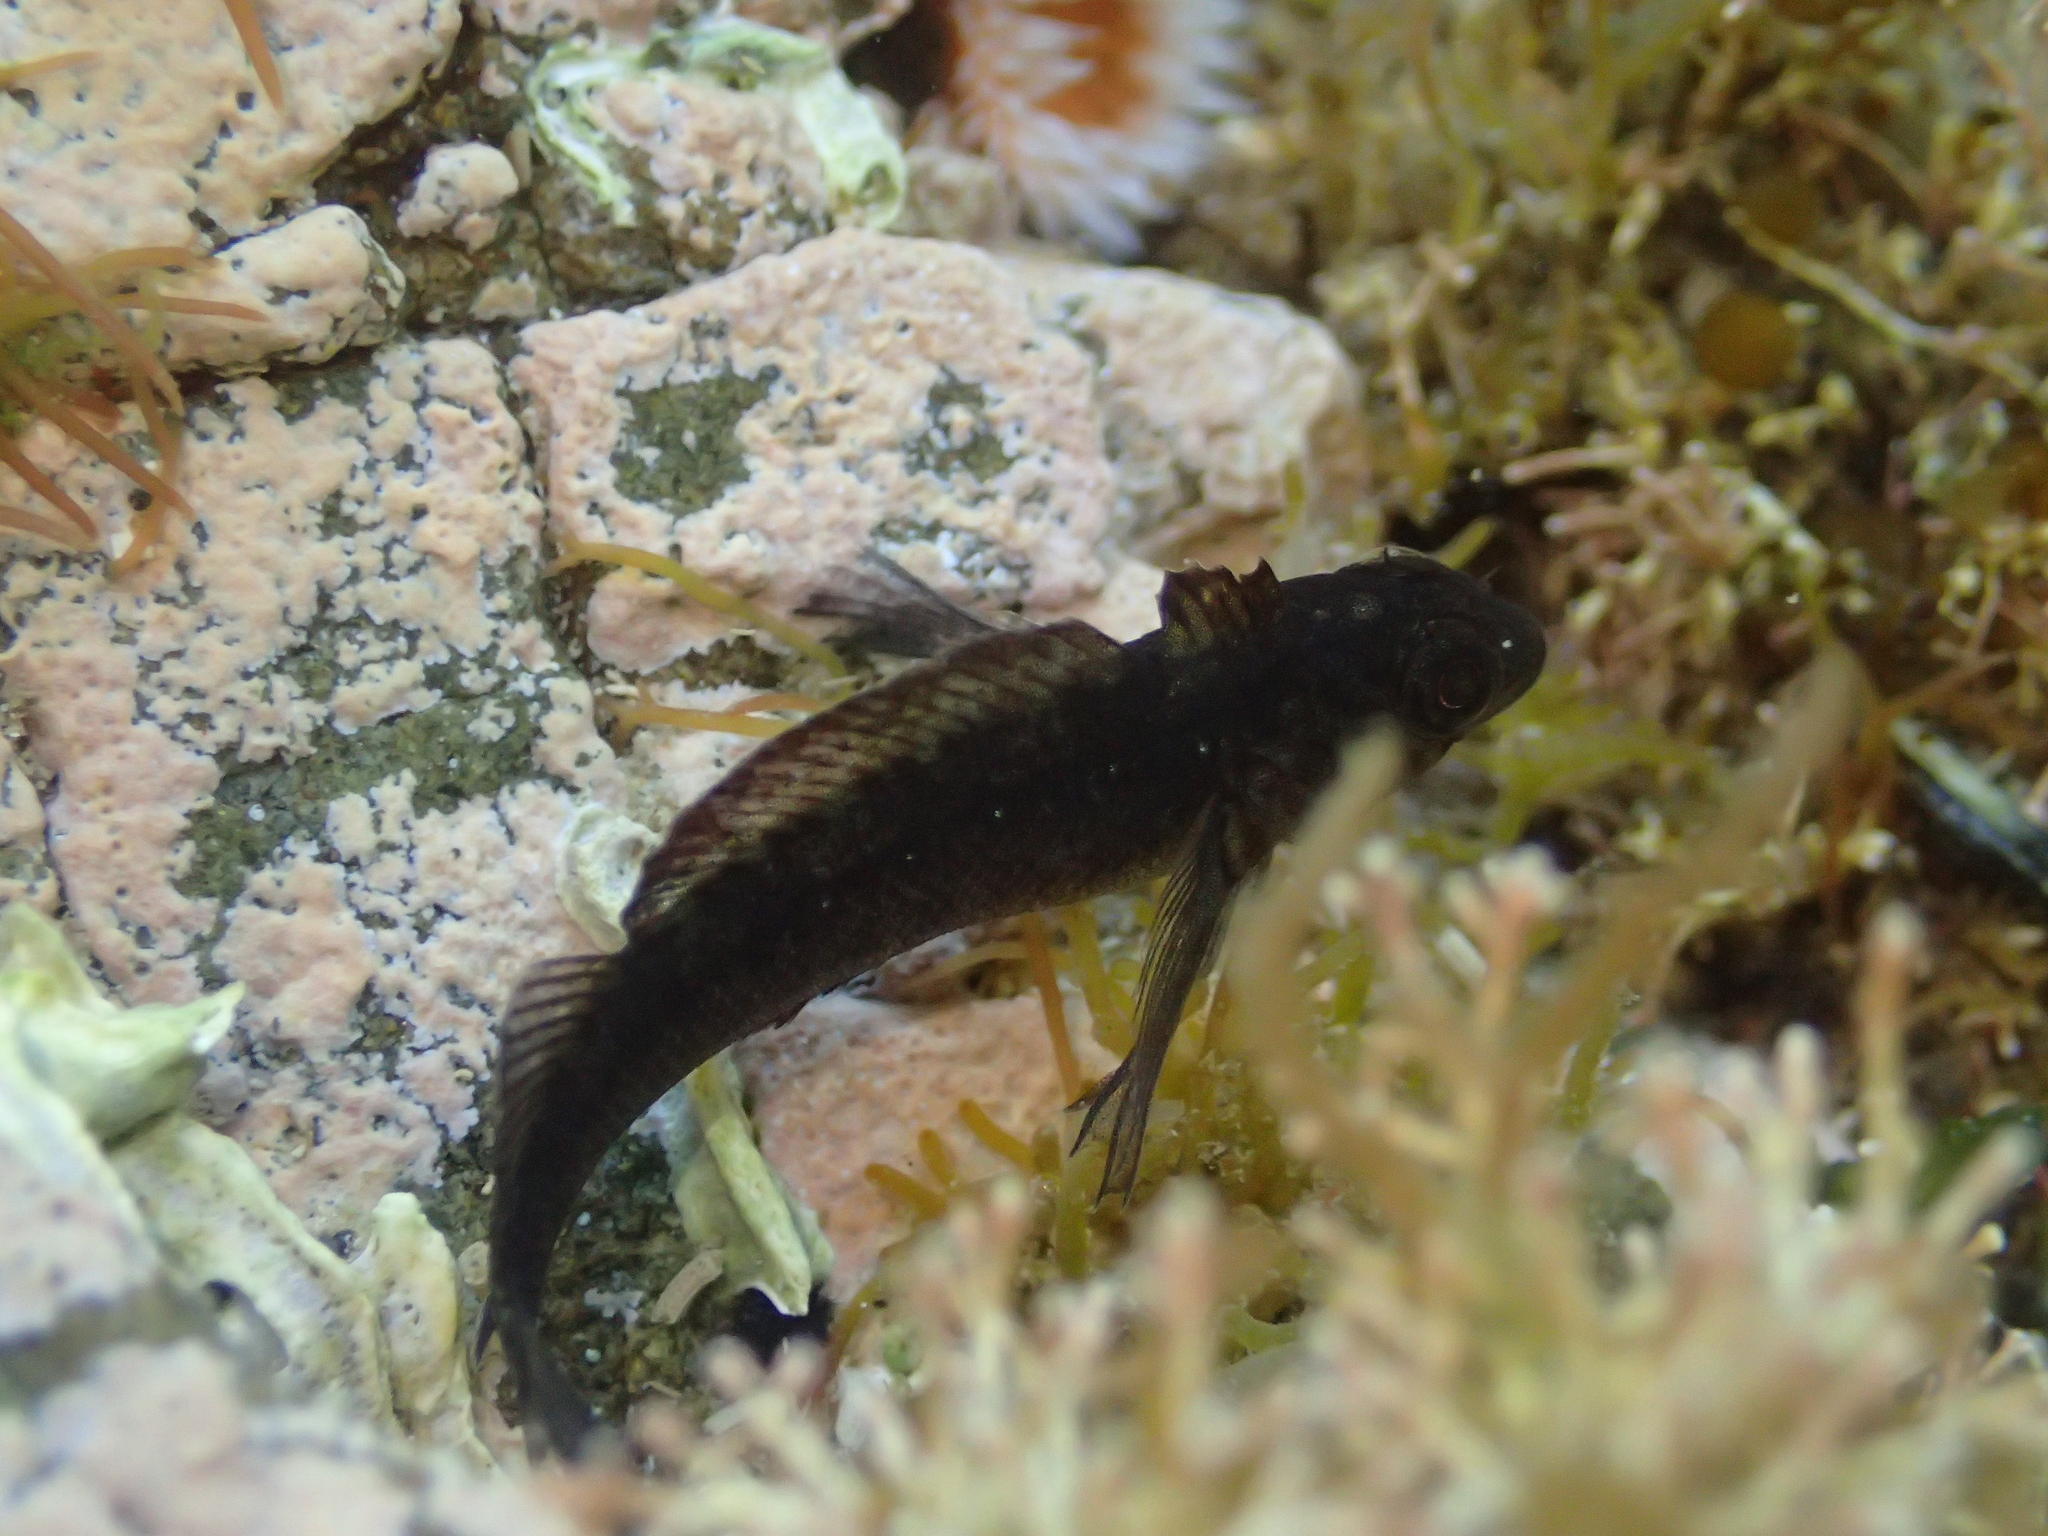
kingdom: Animalia
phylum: Chordata
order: Perciformes
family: Tripterygiidae
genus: Forsterygion
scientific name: Forsterygion lapillum
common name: Common triplefin
